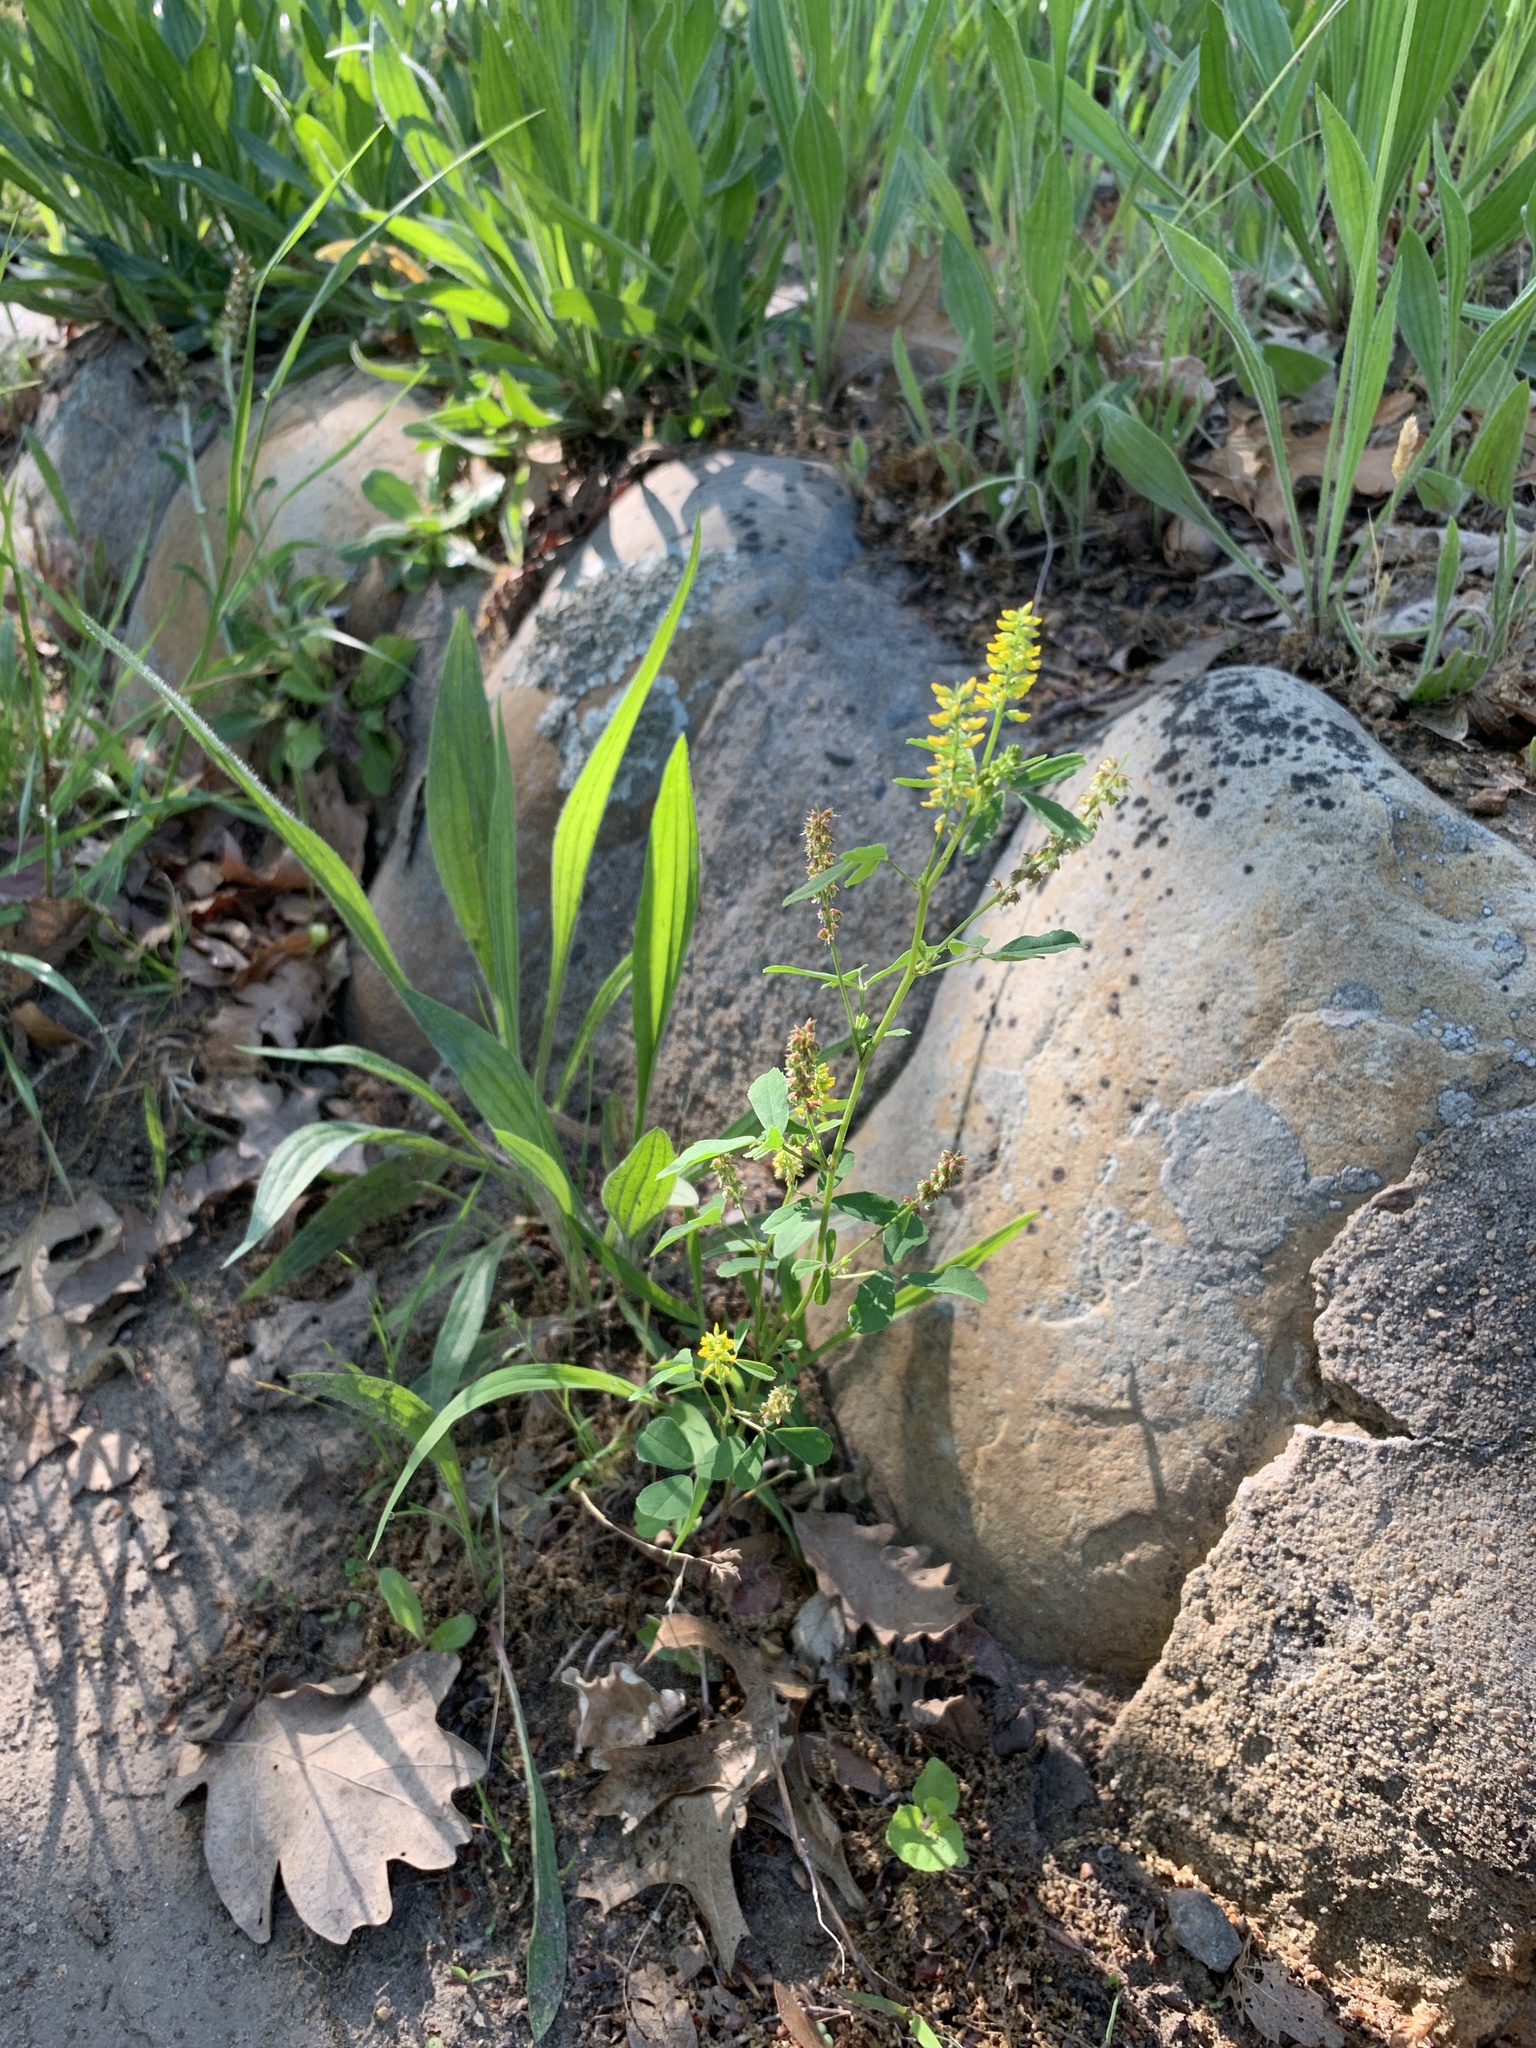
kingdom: Plantae
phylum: Tracheophyta
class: Magnoliopsida
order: Fabales
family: Fabaceae
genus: Melilotus
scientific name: Melilotus indicus
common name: Small melilot
